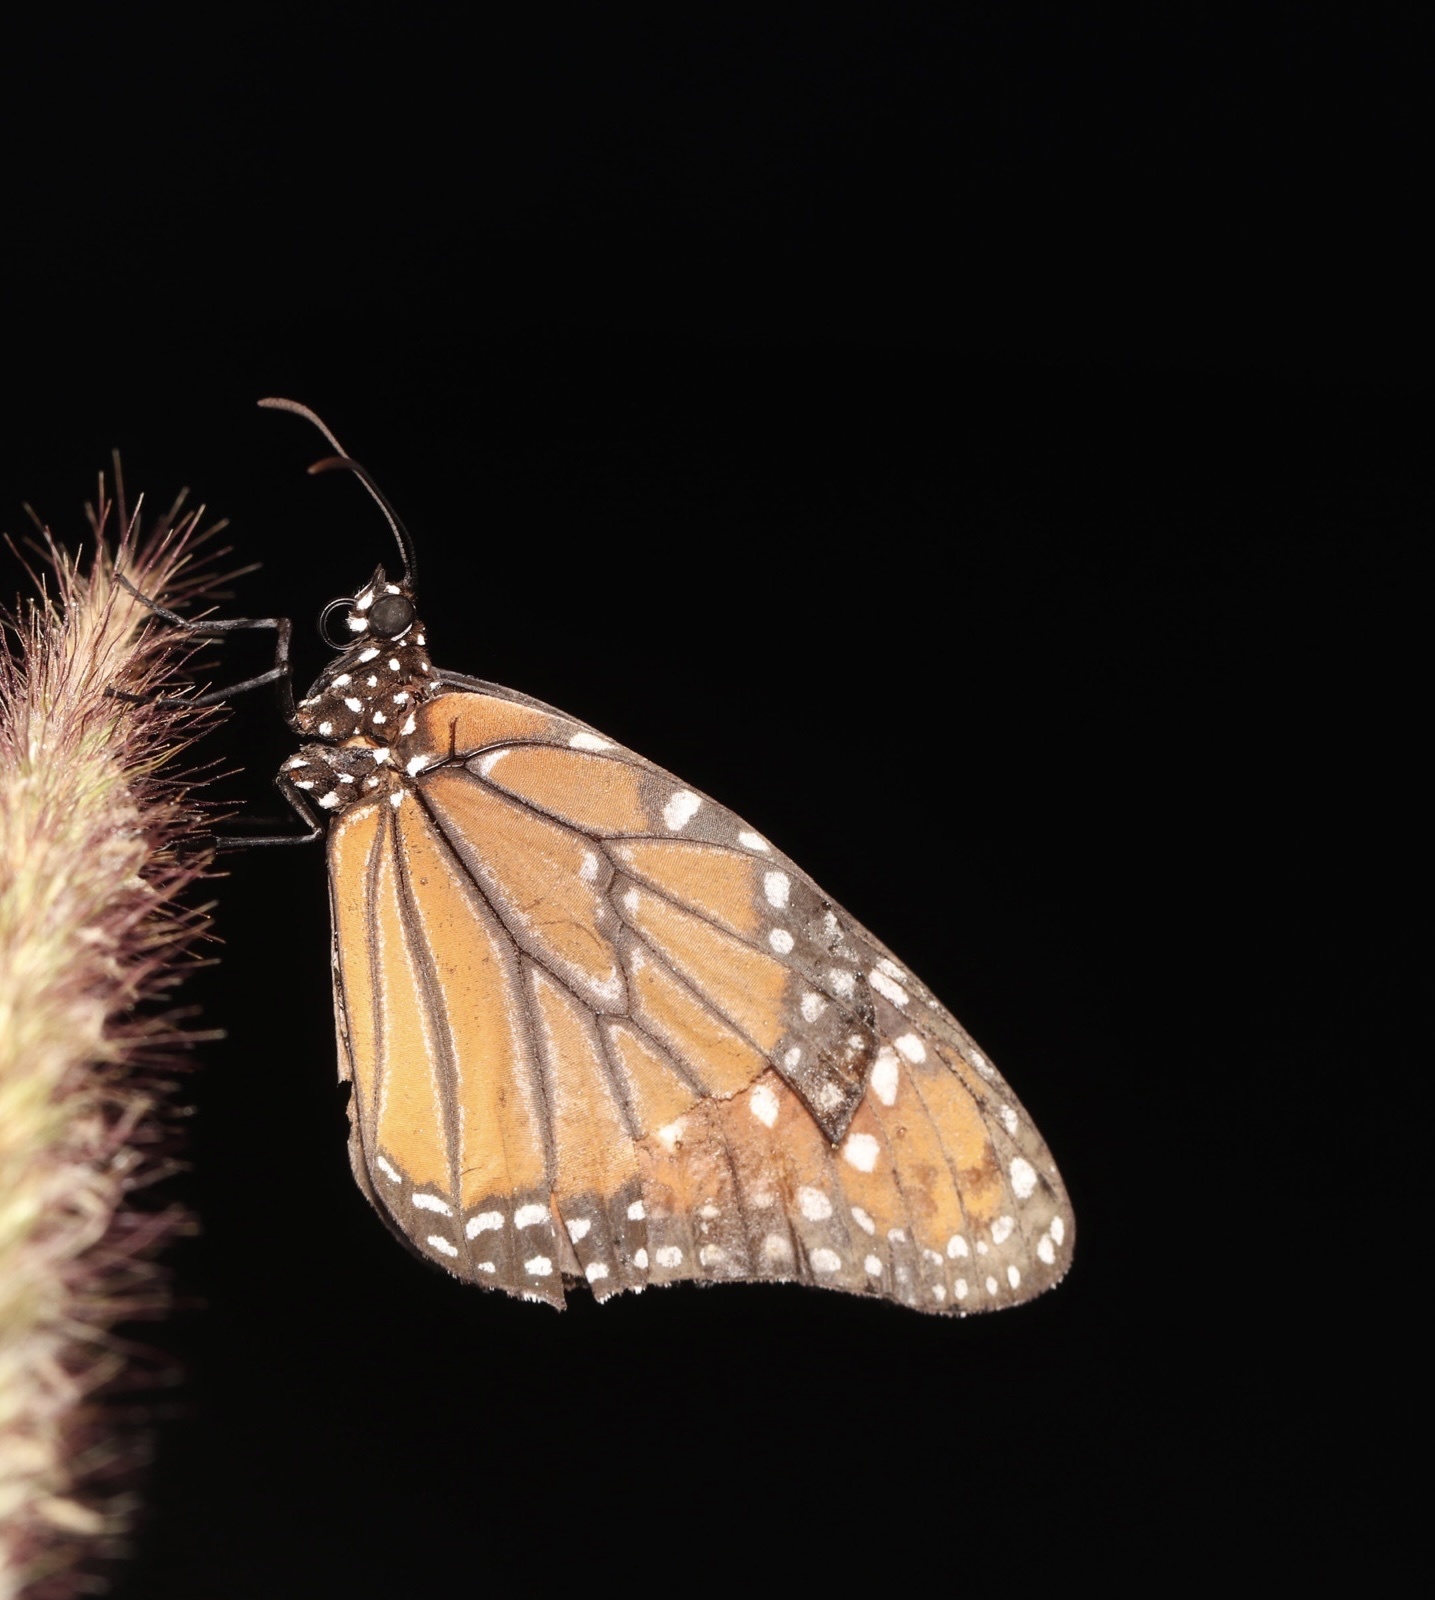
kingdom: Animalia
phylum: Arthropoda
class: Insecta
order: Lepidoptera
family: Nymphalidae
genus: Danaus
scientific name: Danaus gilippus
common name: Queen
